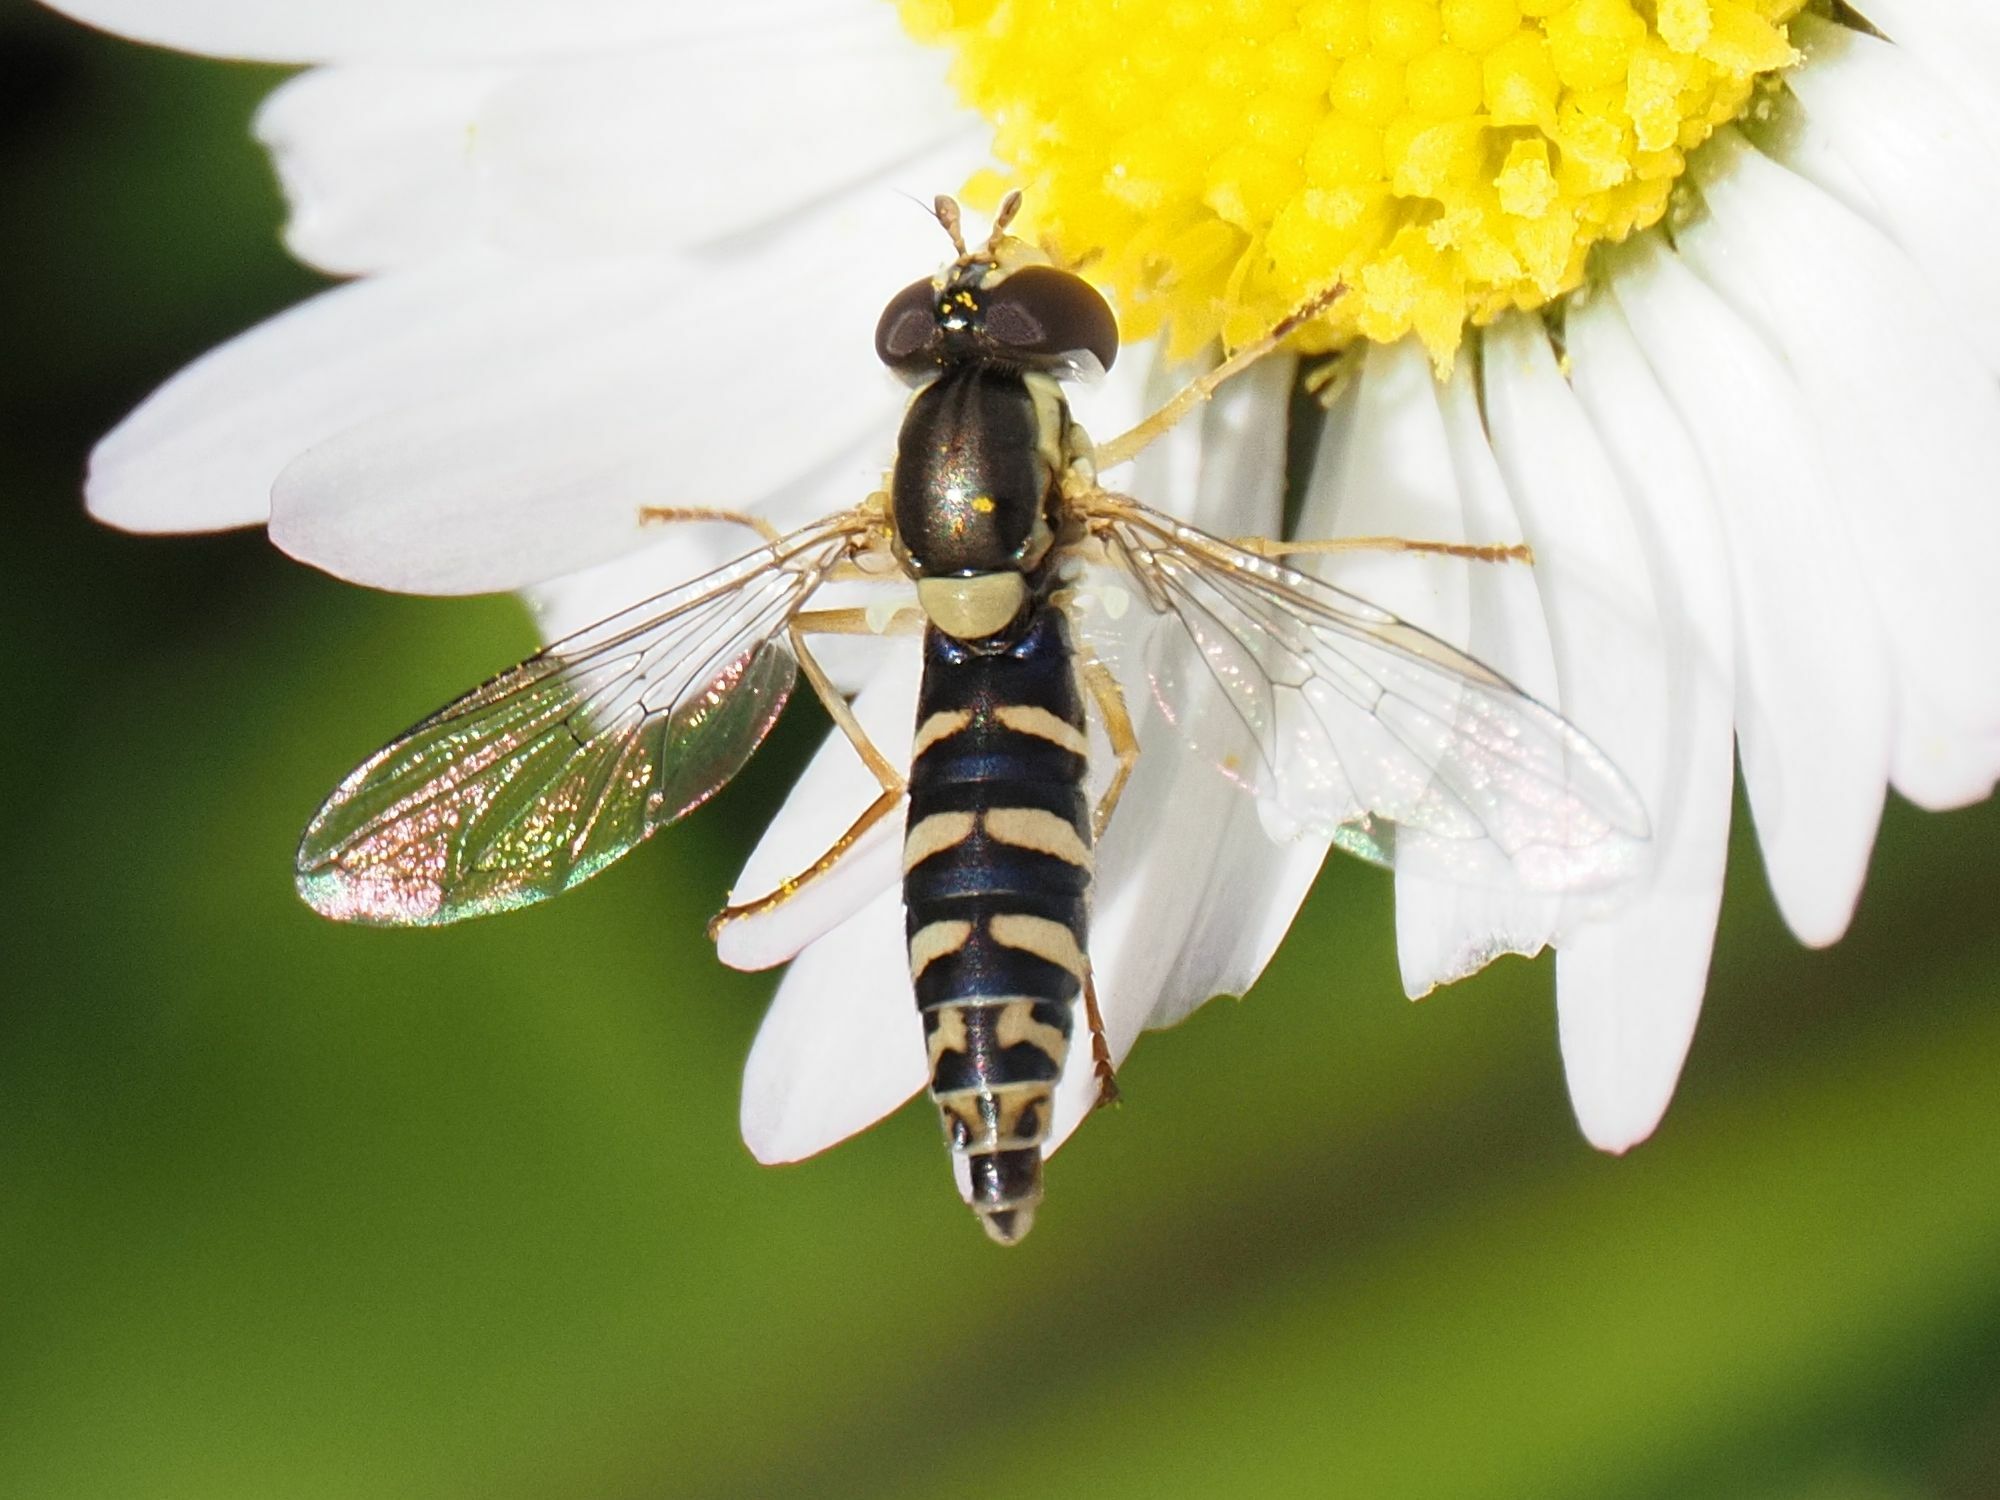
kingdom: Animalia
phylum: Arthropoda
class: Insecta
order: Diptera
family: Syrphidae
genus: Sphaerophoria
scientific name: Sphaerophoria
